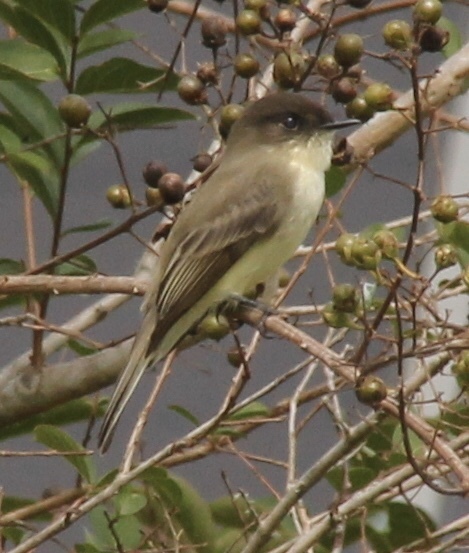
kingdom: Animalia
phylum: Chordata
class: Aves
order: Passeriformes
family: Tyrannidae
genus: Sayornis
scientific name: Sayornis phoebe
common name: Eastern phoebe
